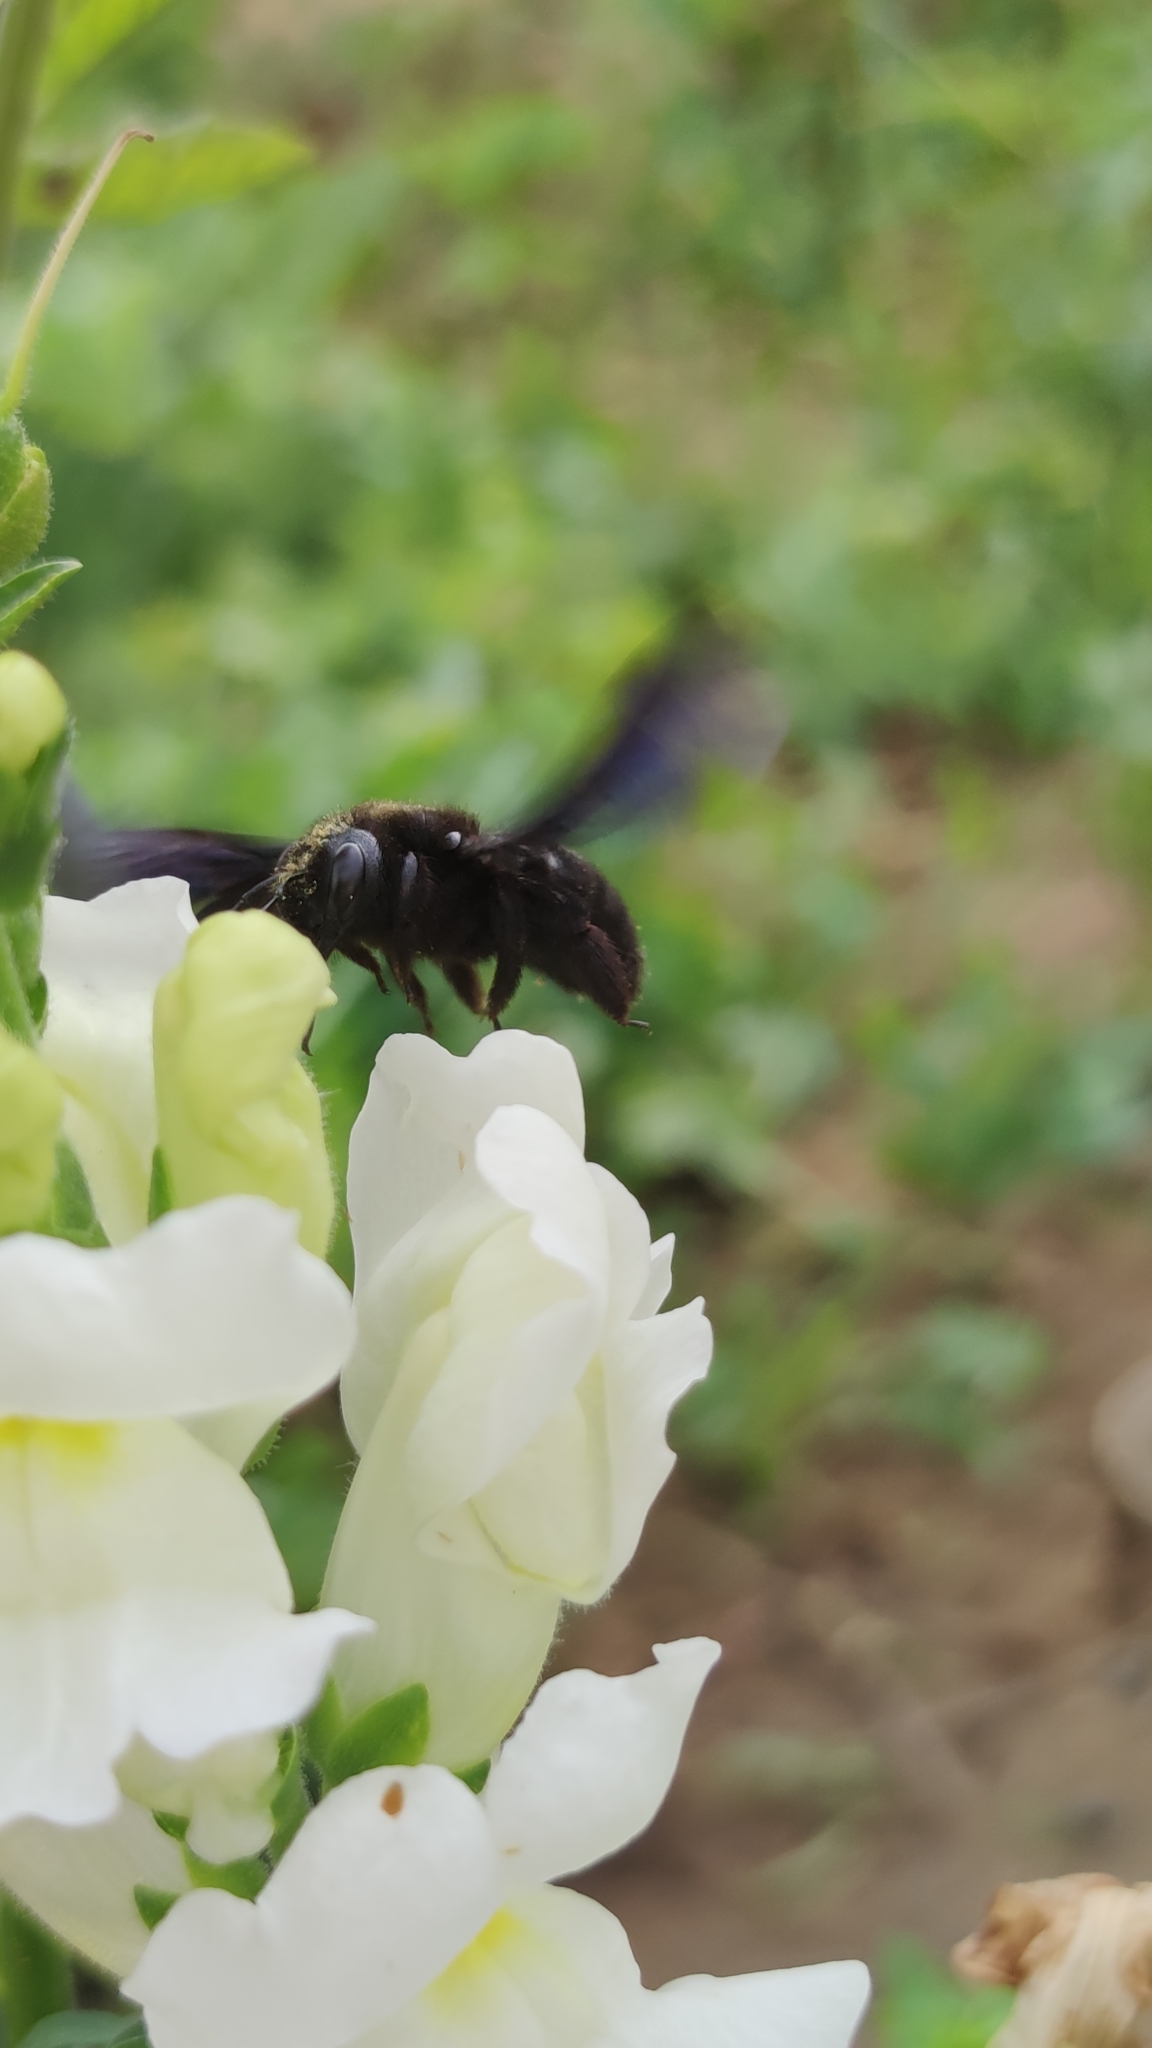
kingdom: Animalia
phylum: Arthropoda
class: Insecta
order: Hymenoptera
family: Apidae
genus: Xylocopa
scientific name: Xylocopa
